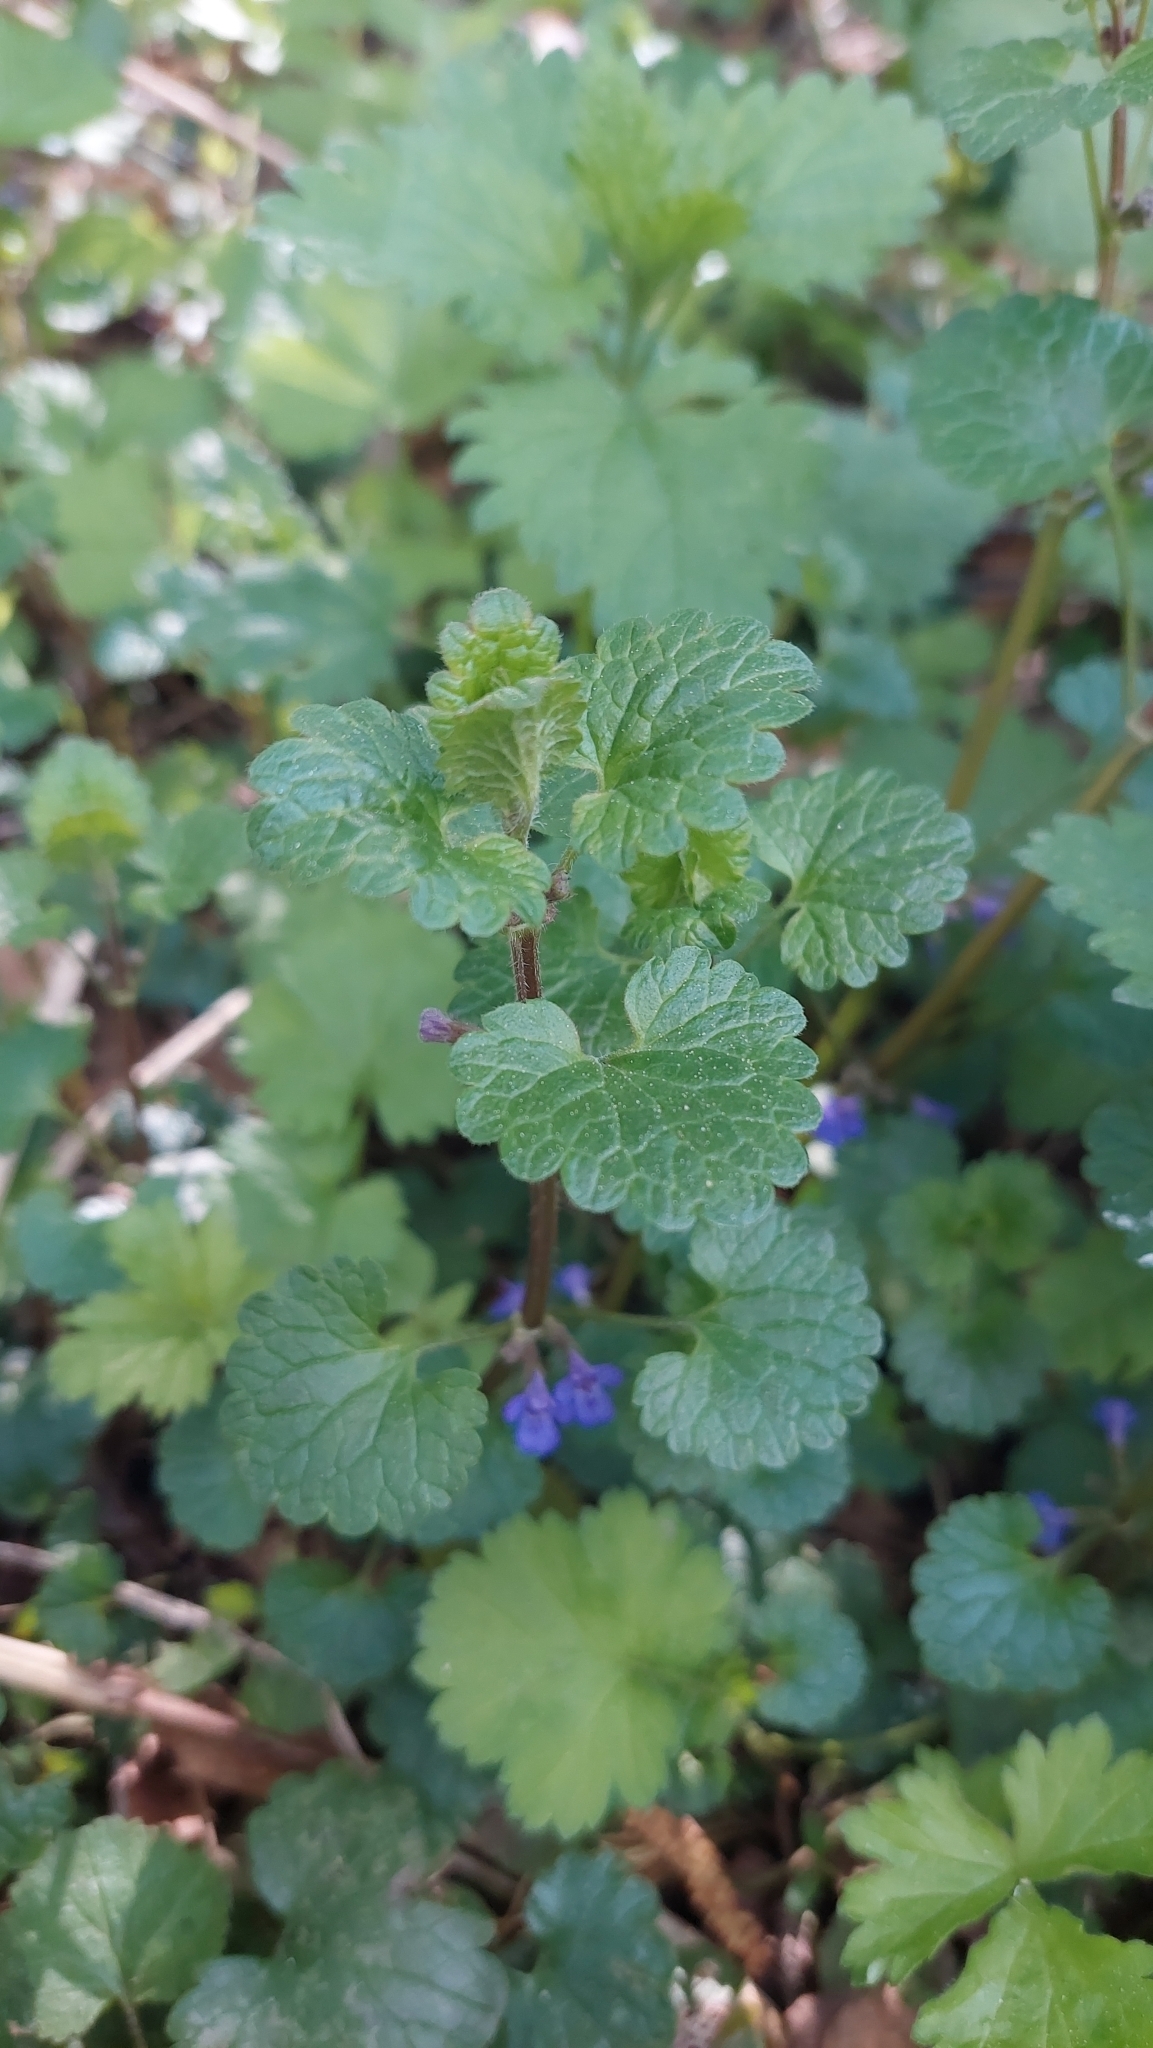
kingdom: Plantae
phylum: Tracheophyta
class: Magnoliopsida
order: Lamiales
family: Lamiaceae
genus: Glechoma
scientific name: Glechoma hederacea
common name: Ground ivy
